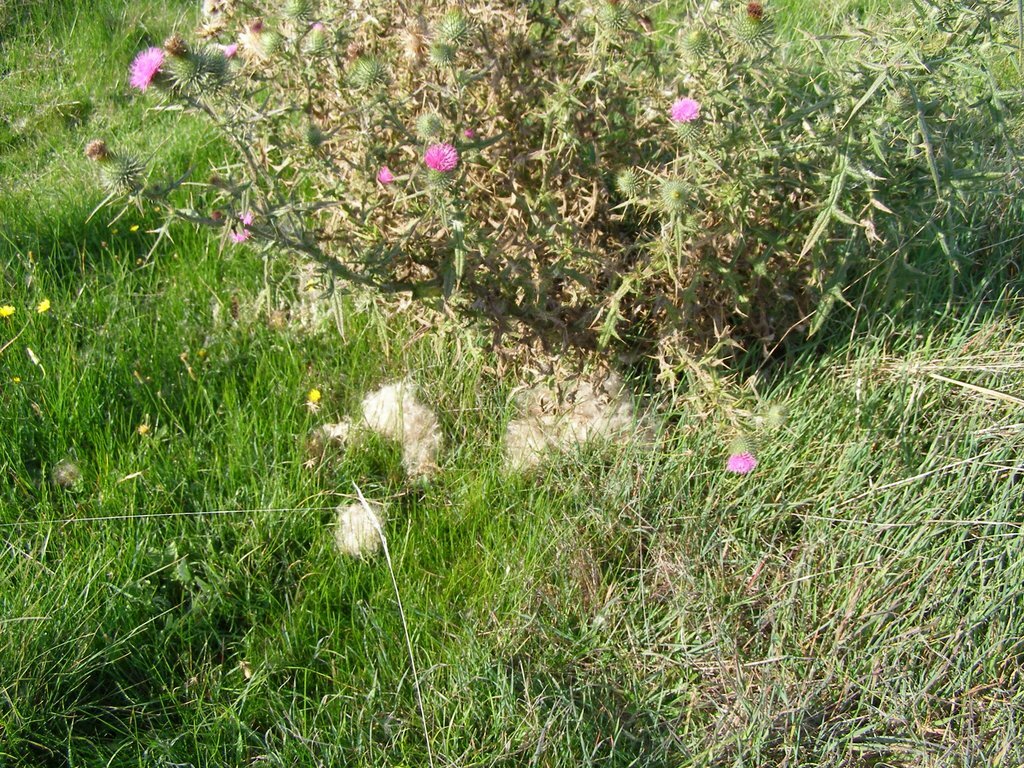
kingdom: Plantae
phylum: Tracheophyta
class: Magnoliopsida
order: Asterales
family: Asteraceae
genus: Cirsium
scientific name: Cirsium vulgare
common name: Bull thistle
